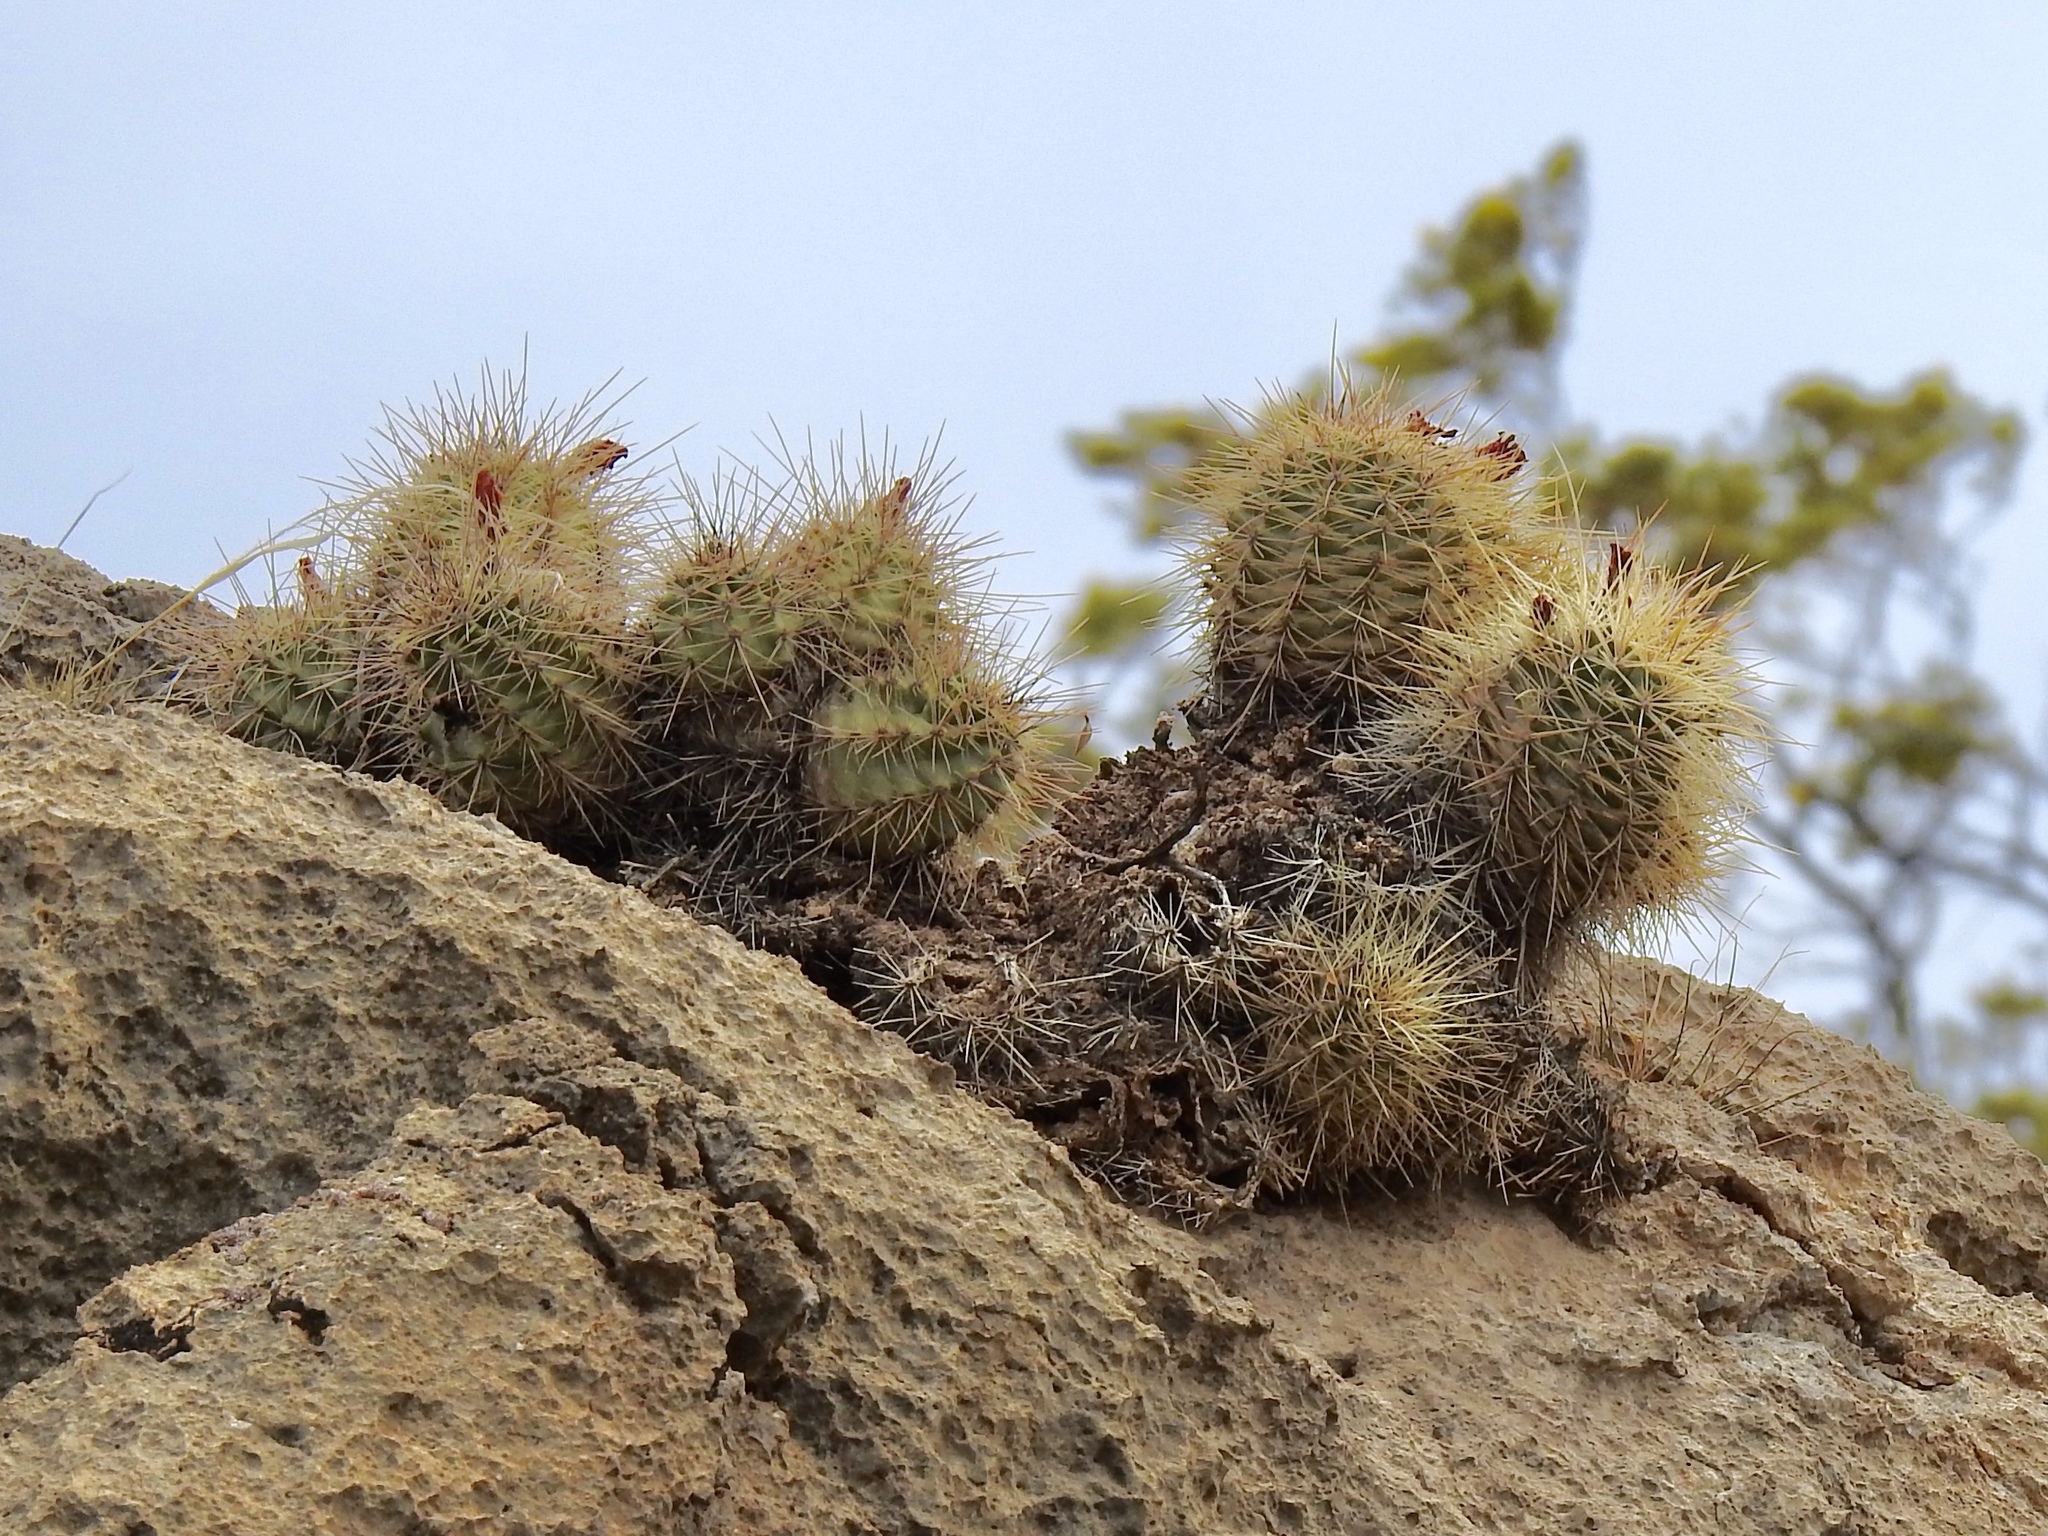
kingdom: Plantae
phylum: Tracheophyta
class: Magnoliopsida
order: Caryophyllales
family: Cactaceae
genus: Echinocereus
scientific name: Echinocereus coccineus
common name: Scarlet hedgehog cactus
